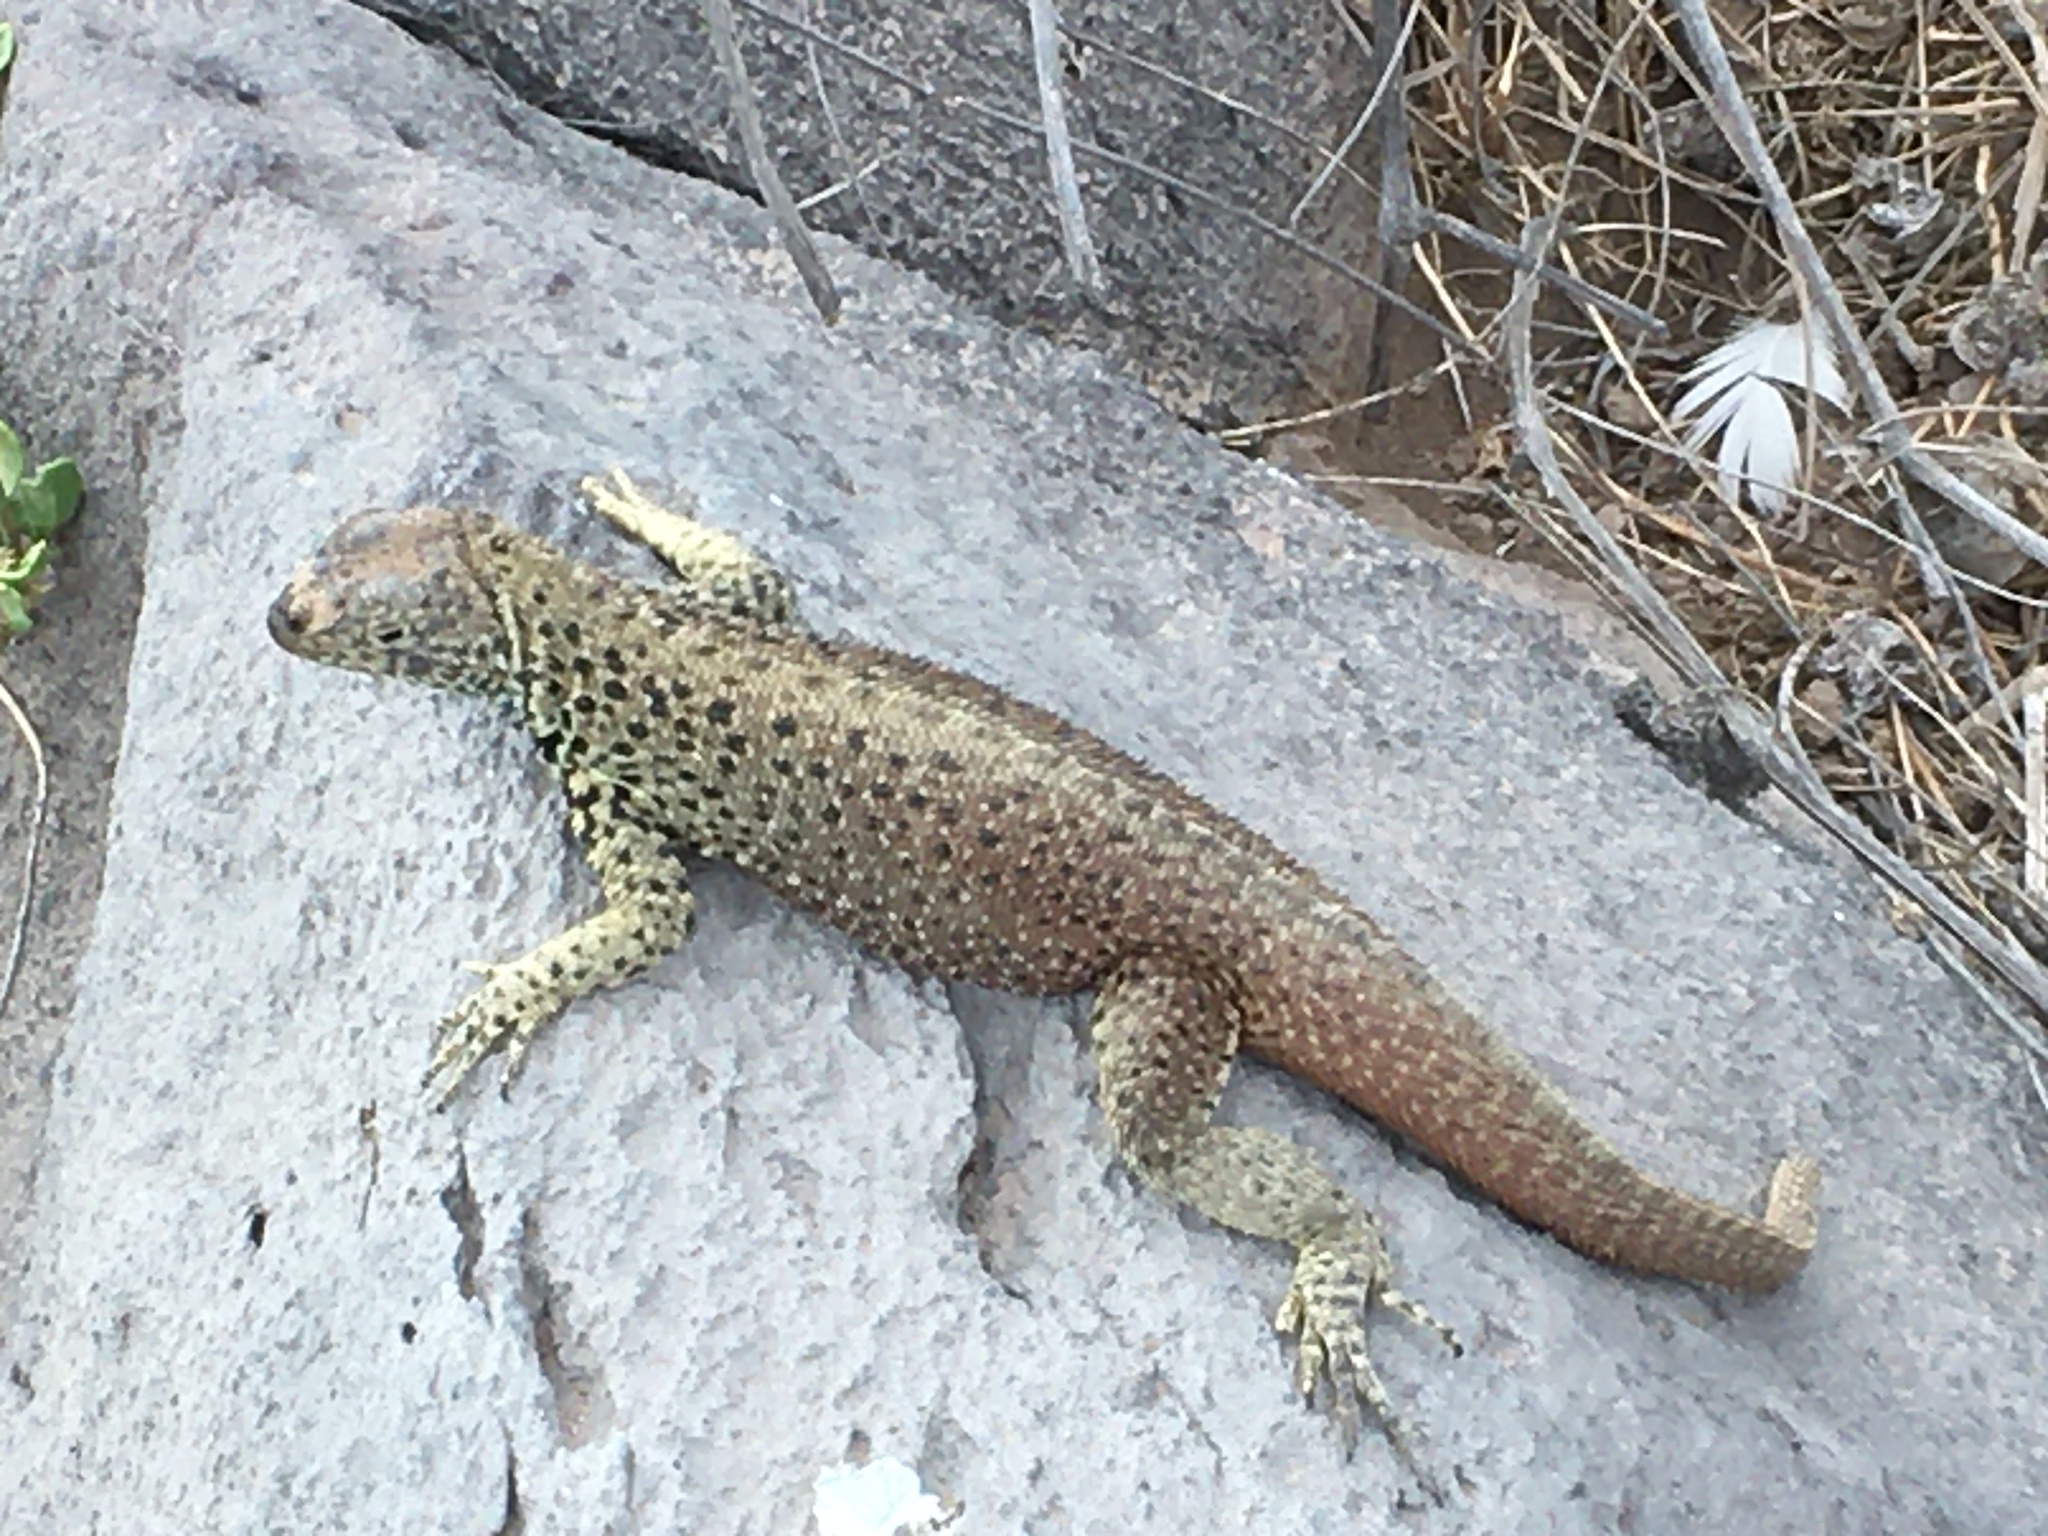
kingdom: Animalia
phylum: Chordata
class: Squamata
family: Tropiduridae
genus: Microlophus
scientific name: Microlophus delanonis
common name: Hood lava lizard
